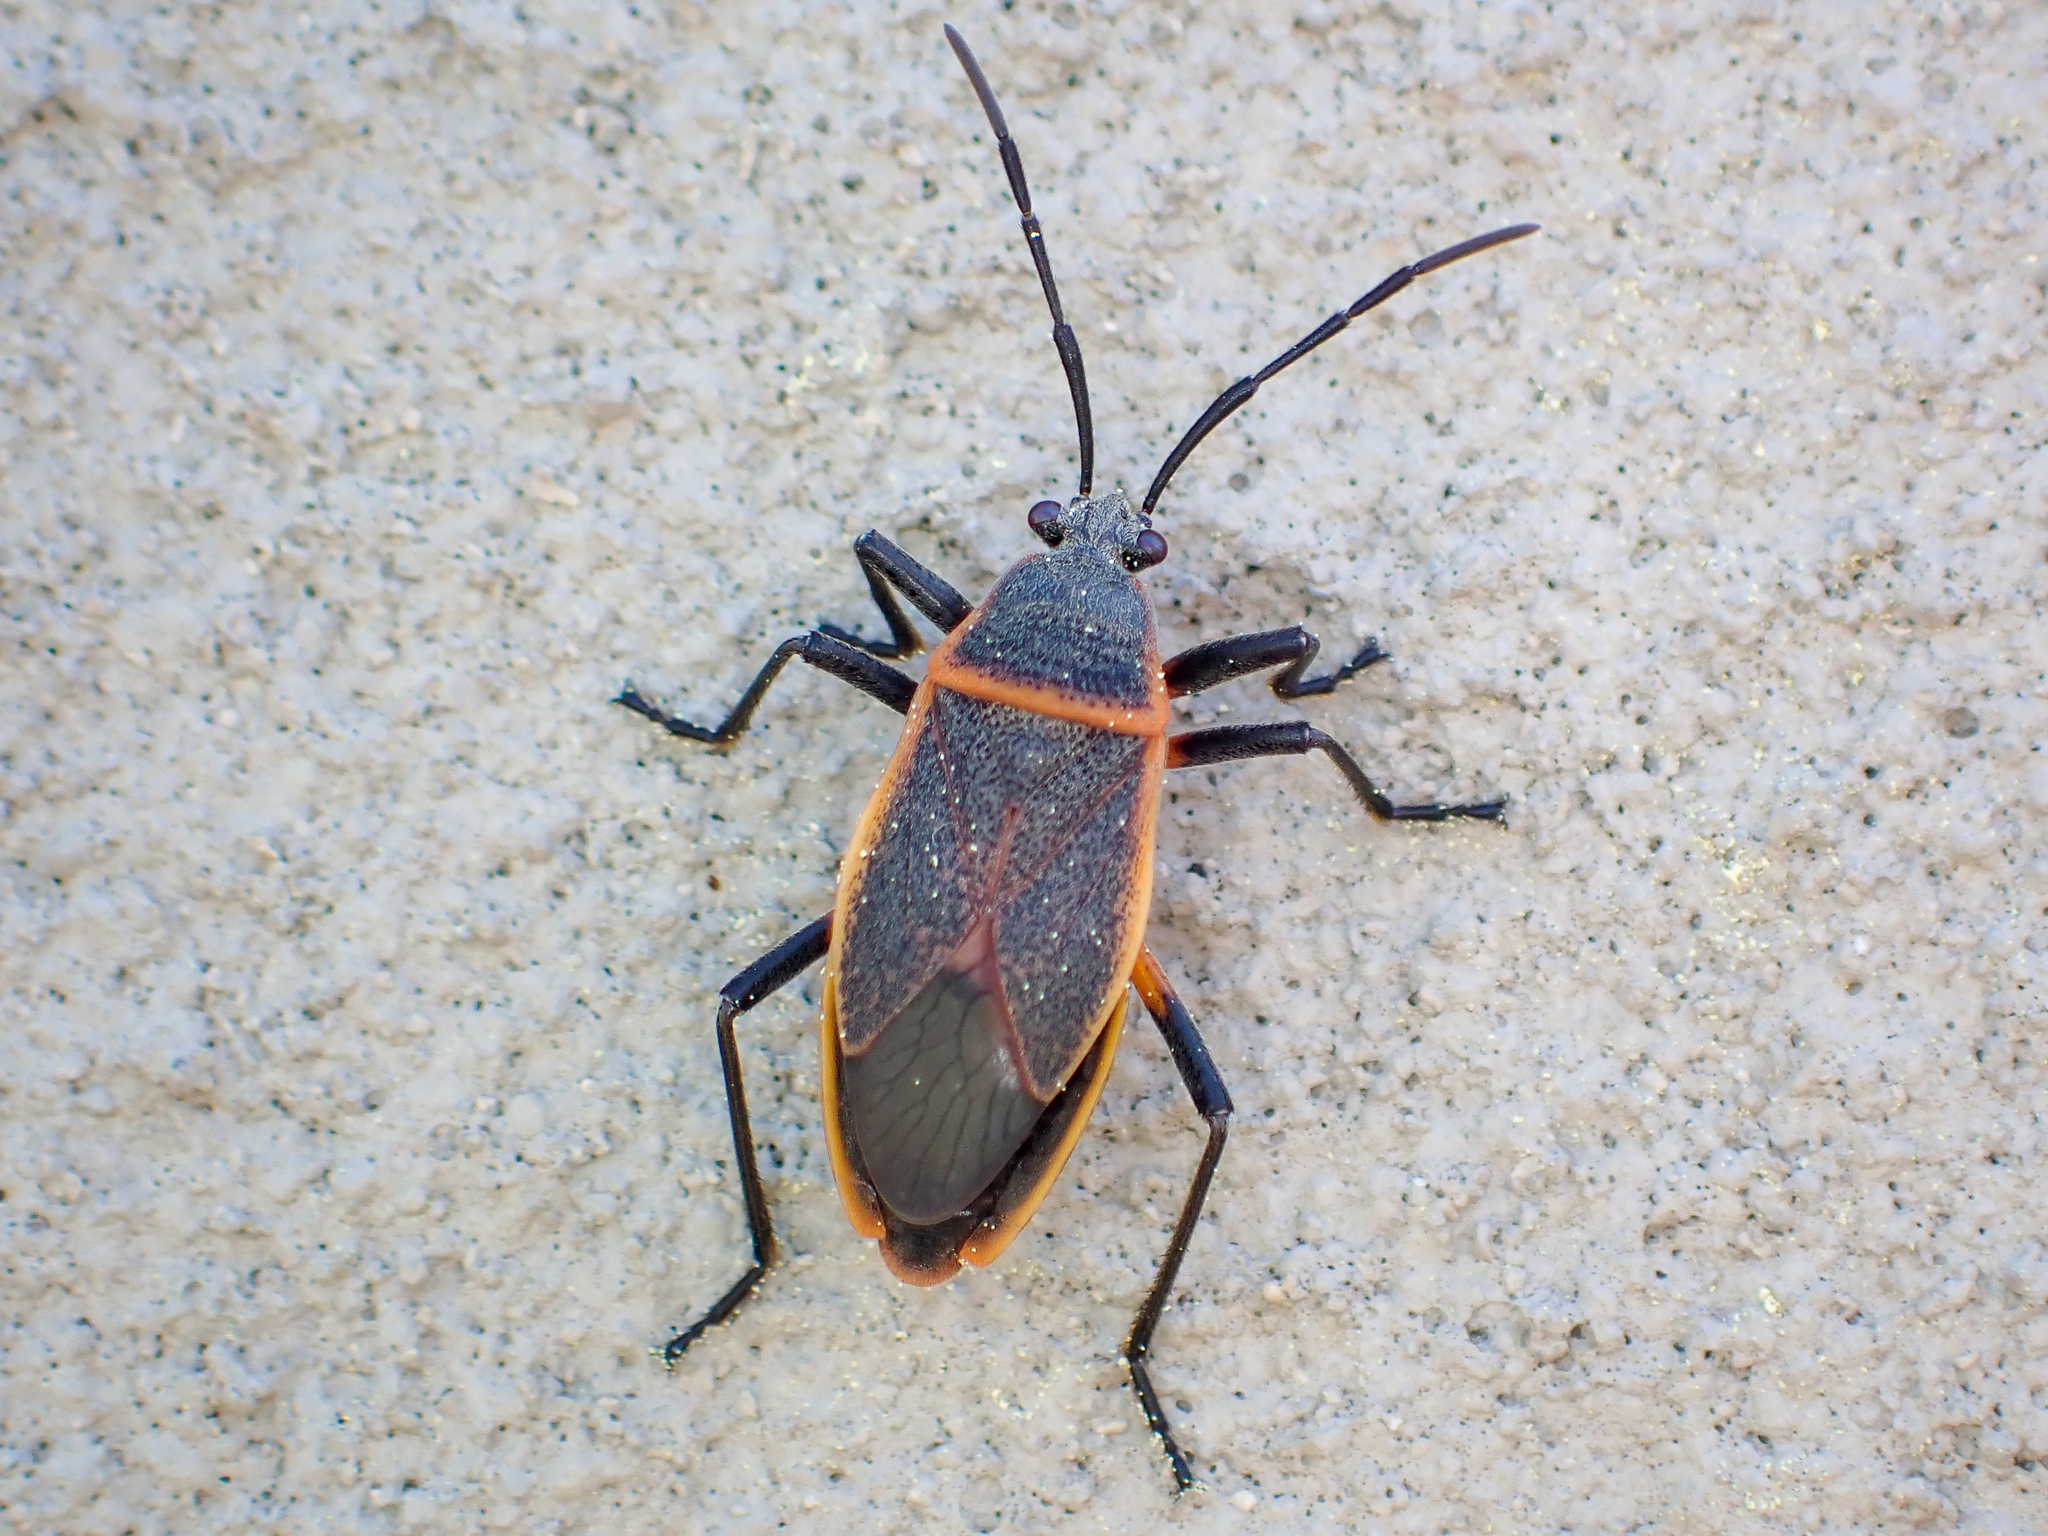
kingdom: Animalia
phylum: Arthropoda
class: Insecta
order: Hemiptera
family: Largidae
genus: Largus
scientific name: Largus succinctus
